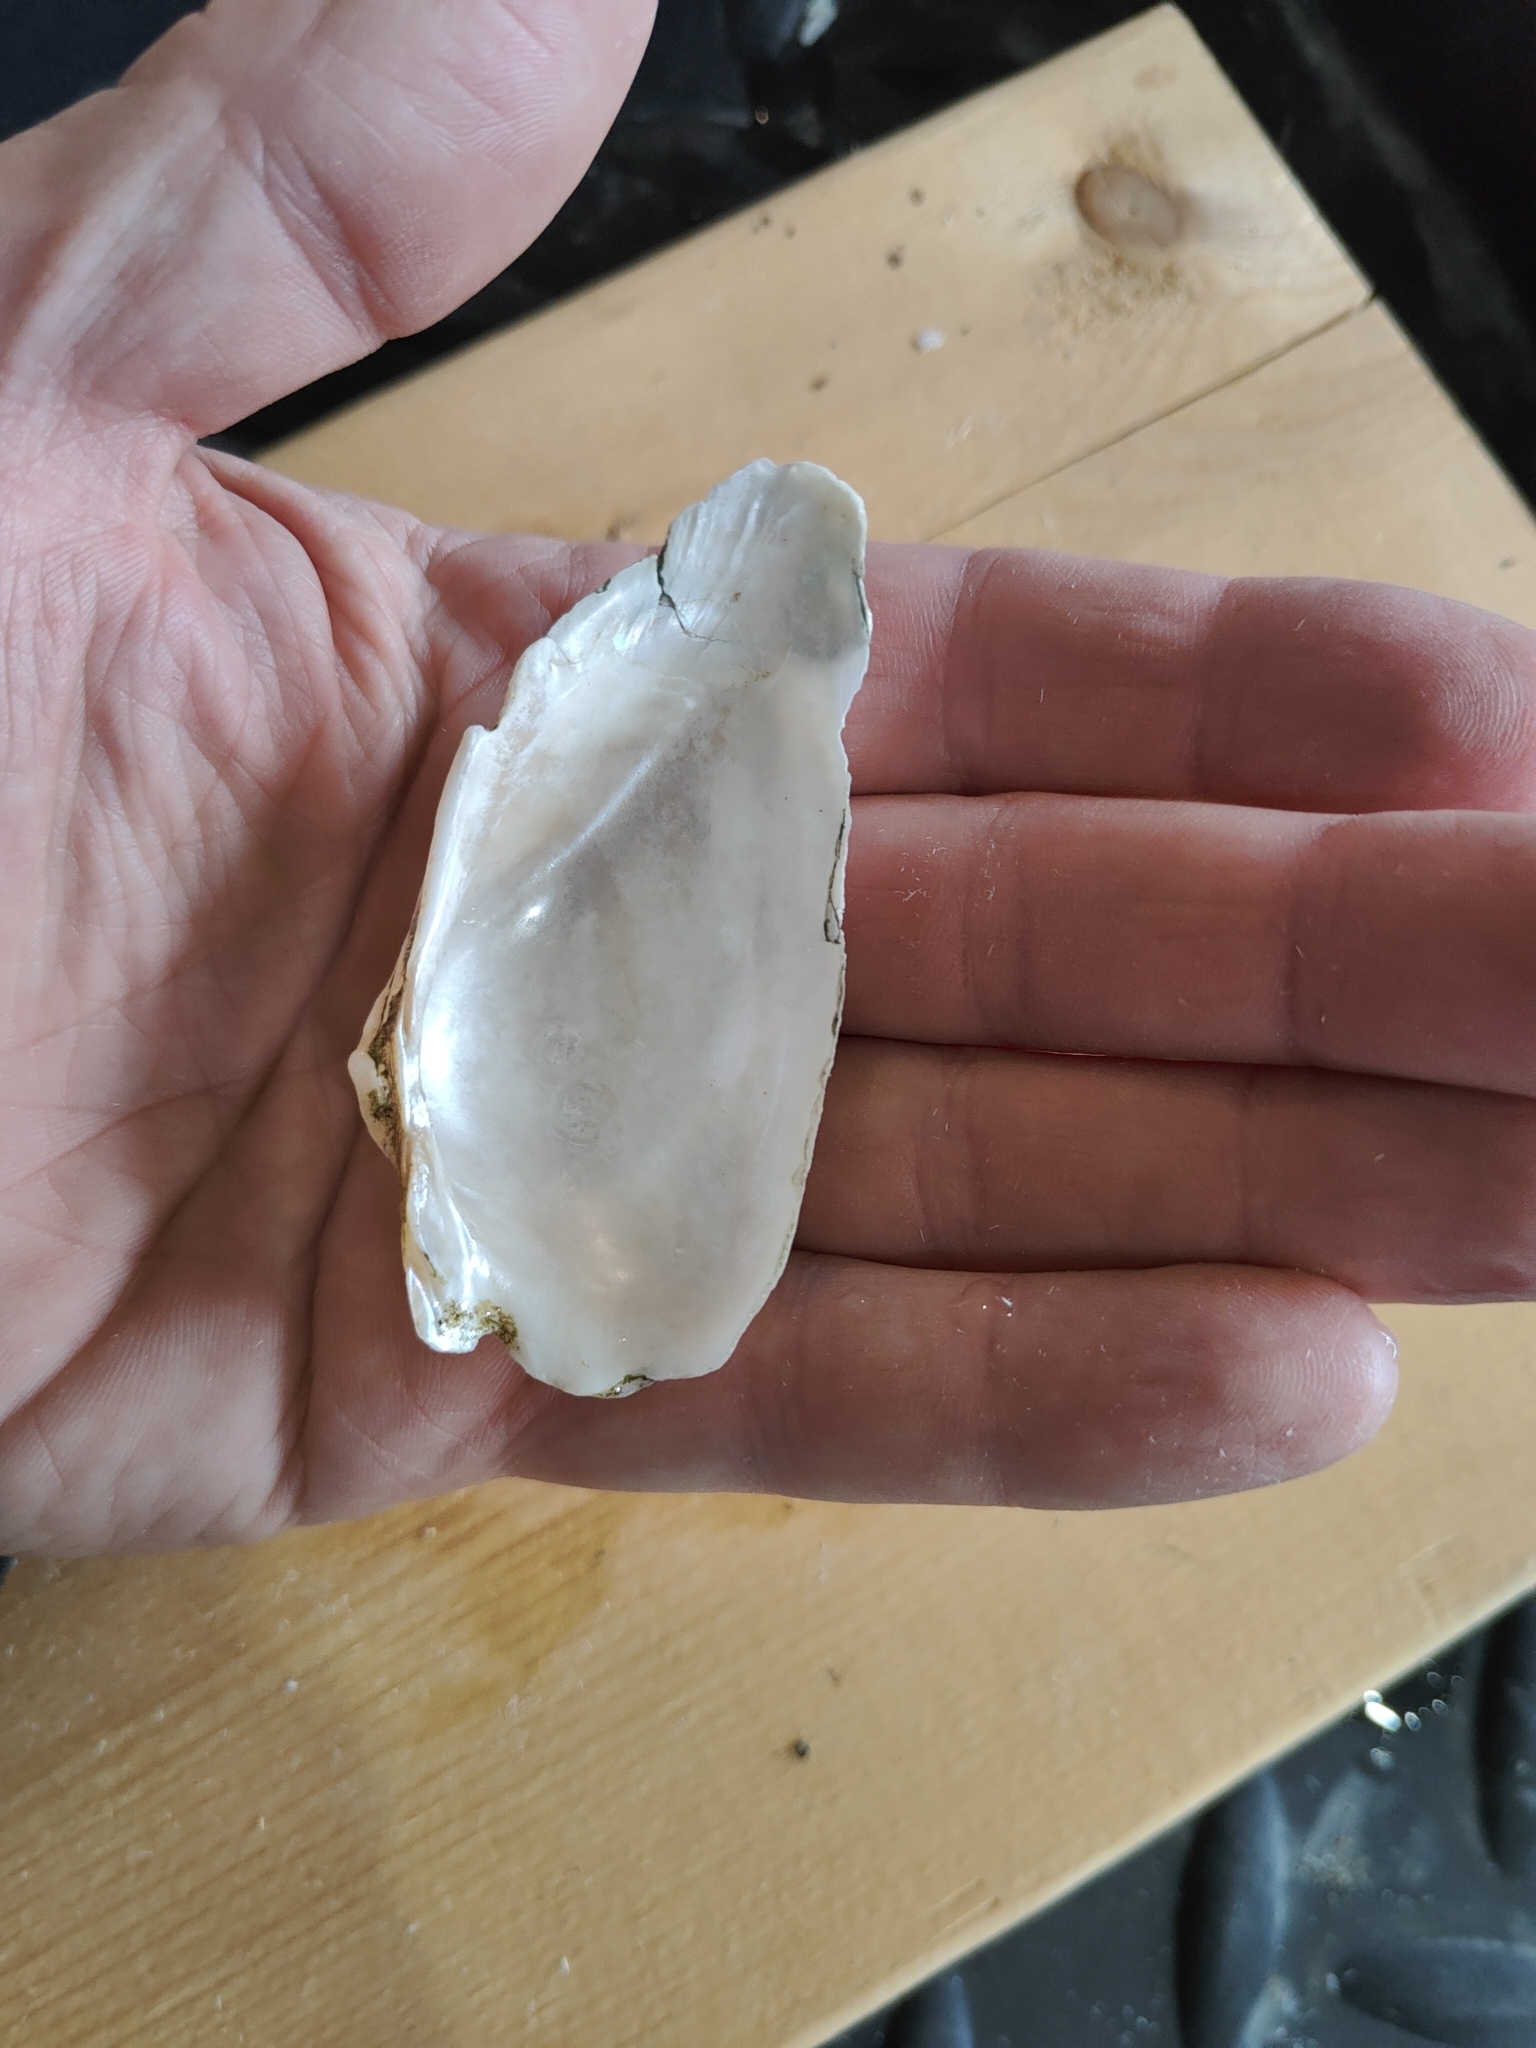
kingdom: Animalia
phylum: Mollusca
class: Bivalvia
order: Unionida
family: Unionidae
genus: Alasmidonta
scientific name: Alasmidonta marginata
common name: Elktoe
